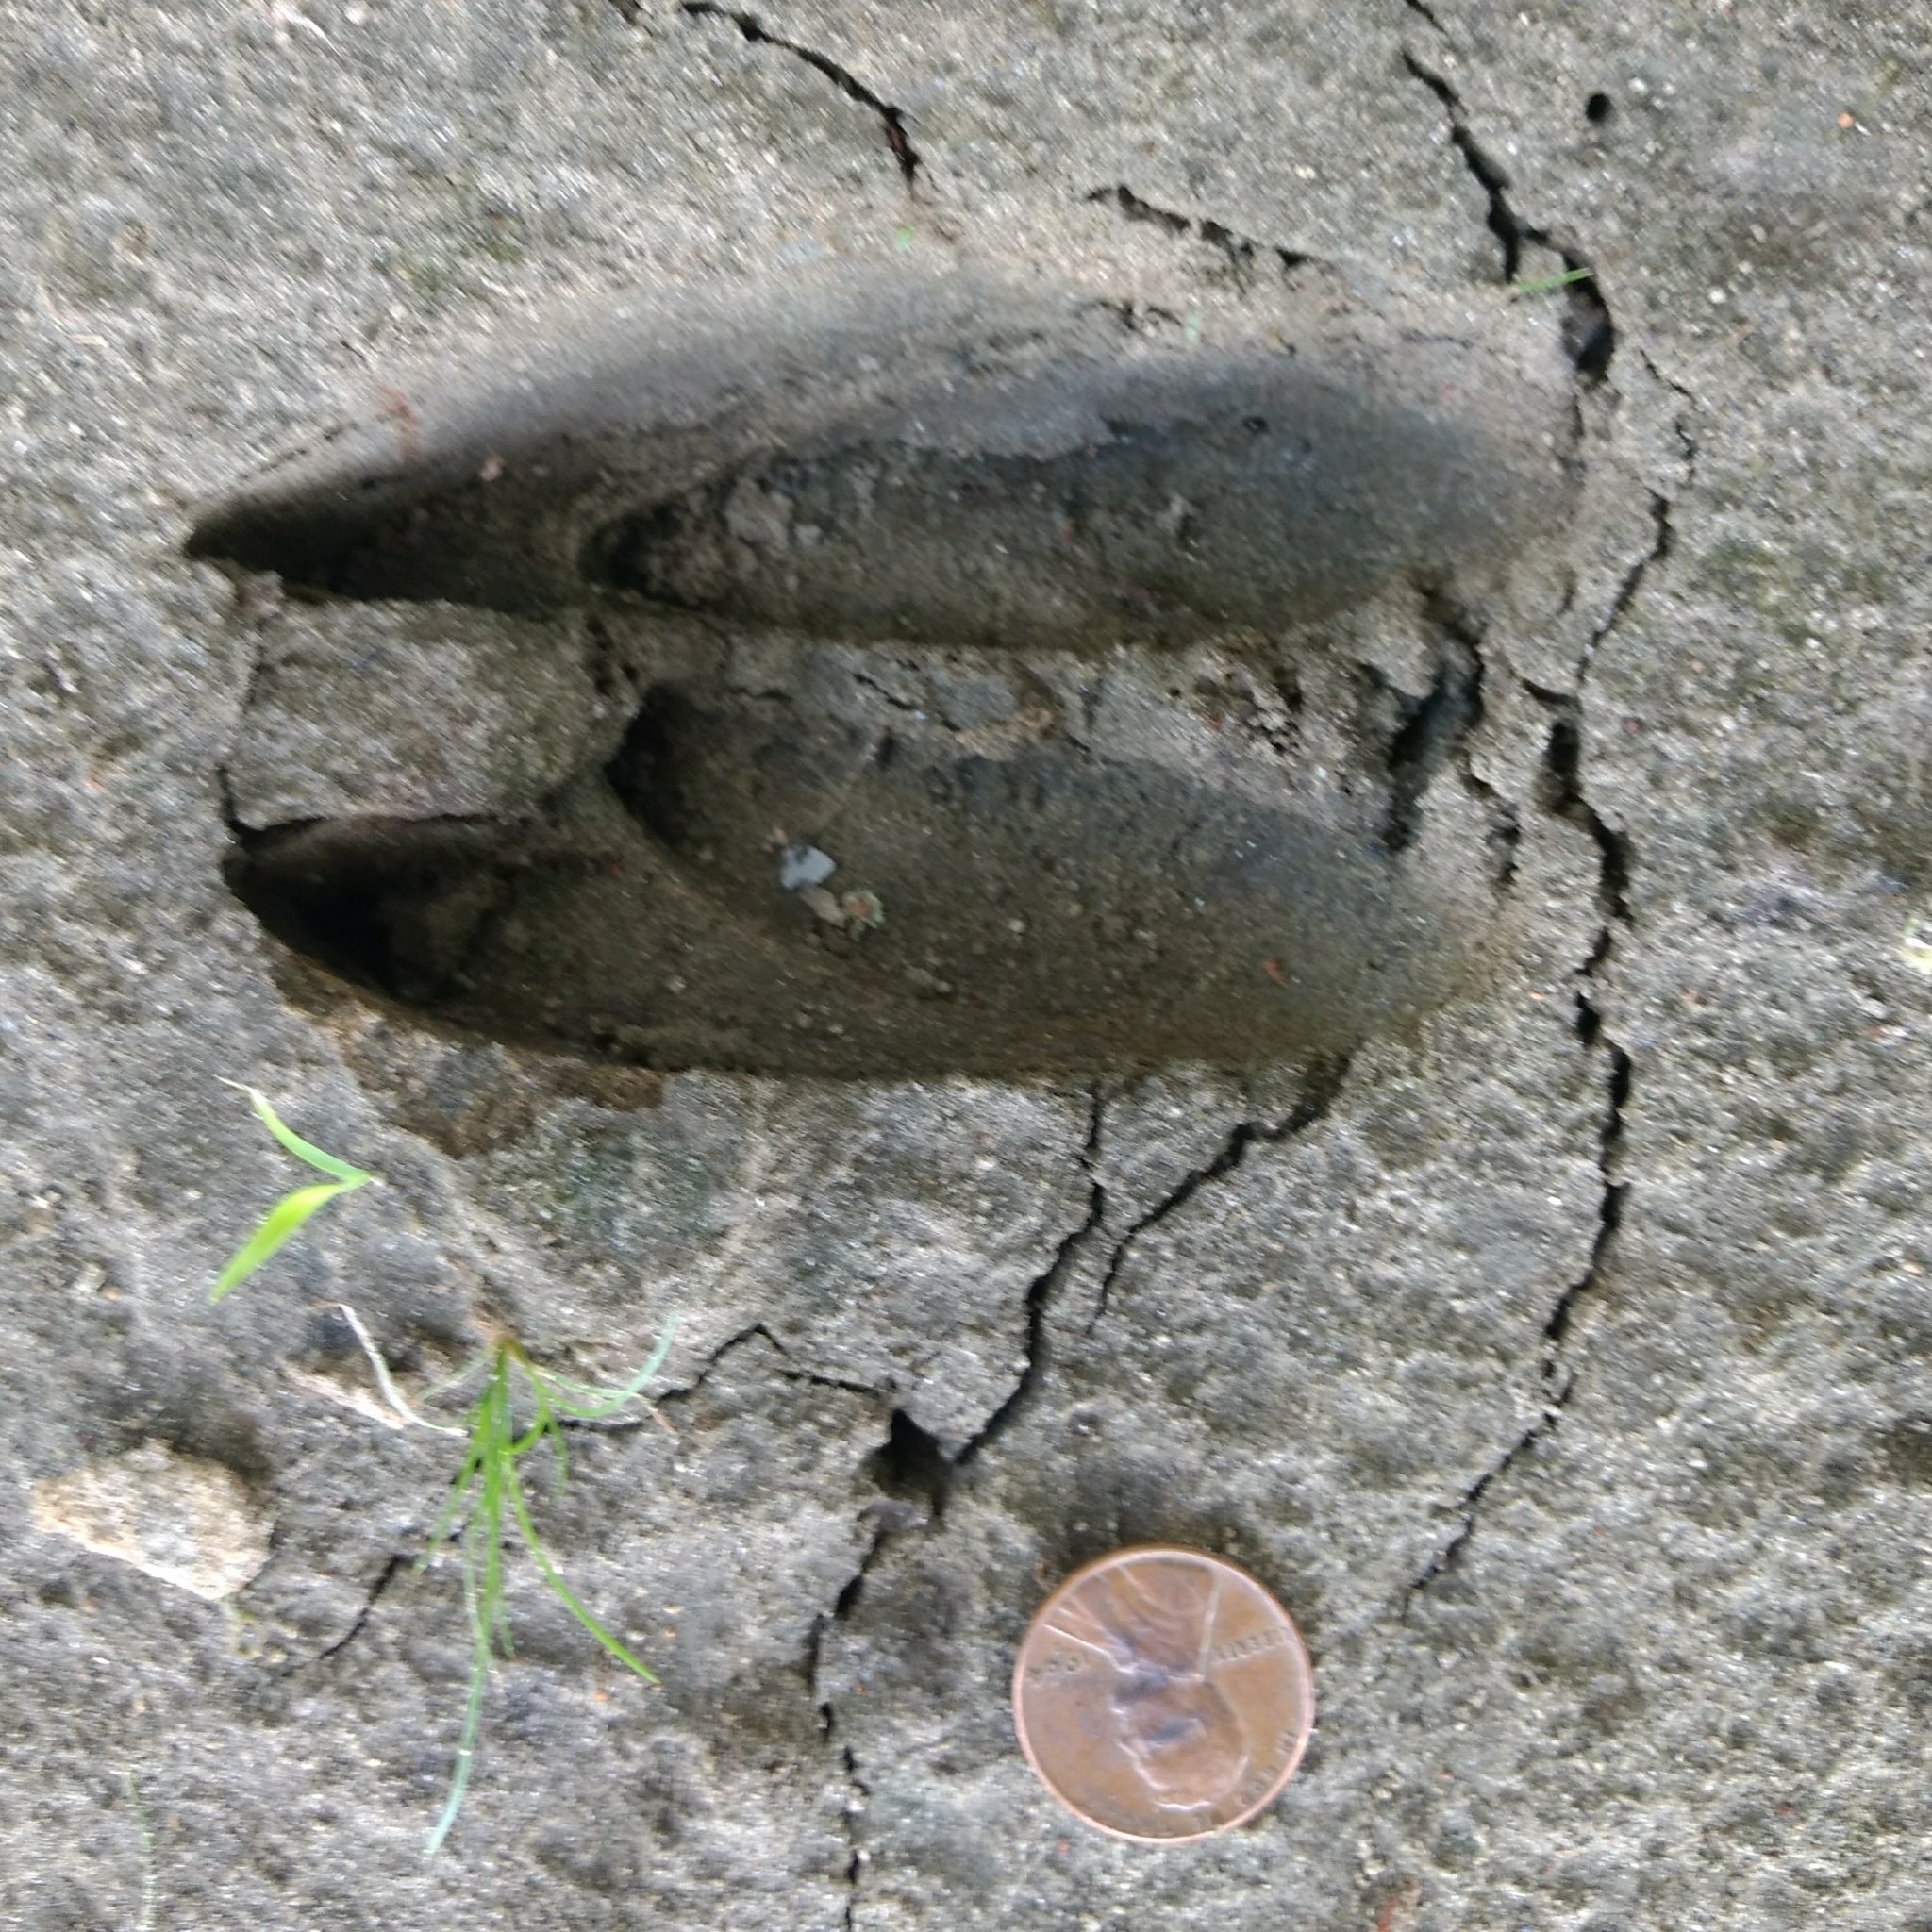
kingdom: Animalia
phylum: Chordata
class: Mammalia
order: Artiodactyla
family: Cervidae
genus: Odocoileus
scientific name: Odocoileus virginianus
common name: White-tailed deer
